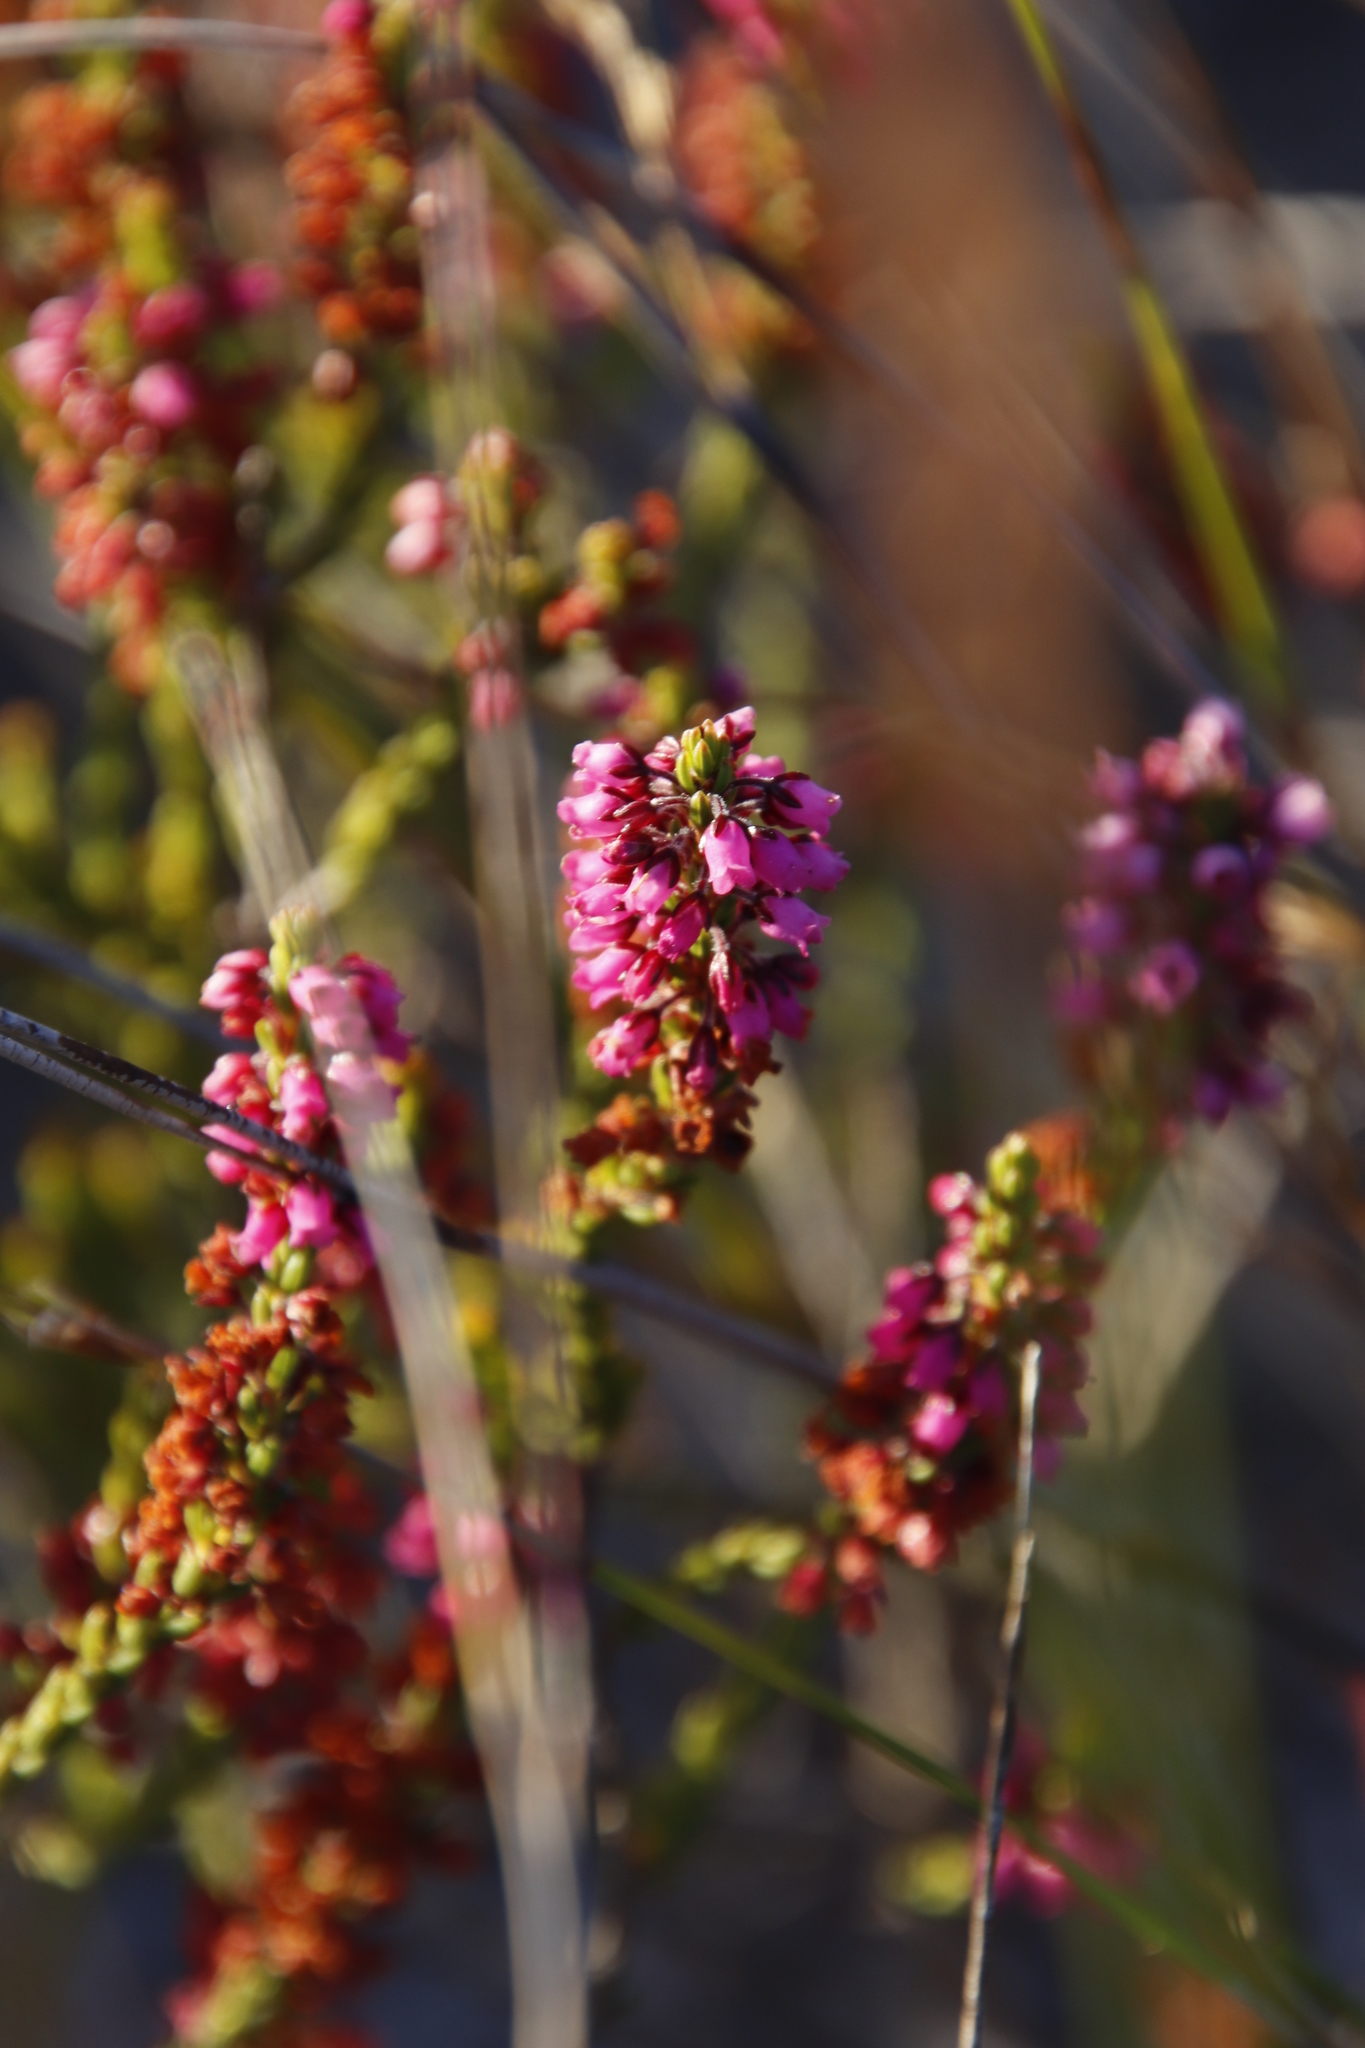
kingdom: Plantae
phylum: Tracheophyta
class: Magnoliopsida
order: Ericales
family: Ericaceae
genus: Erica
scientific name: Erica pulchella
